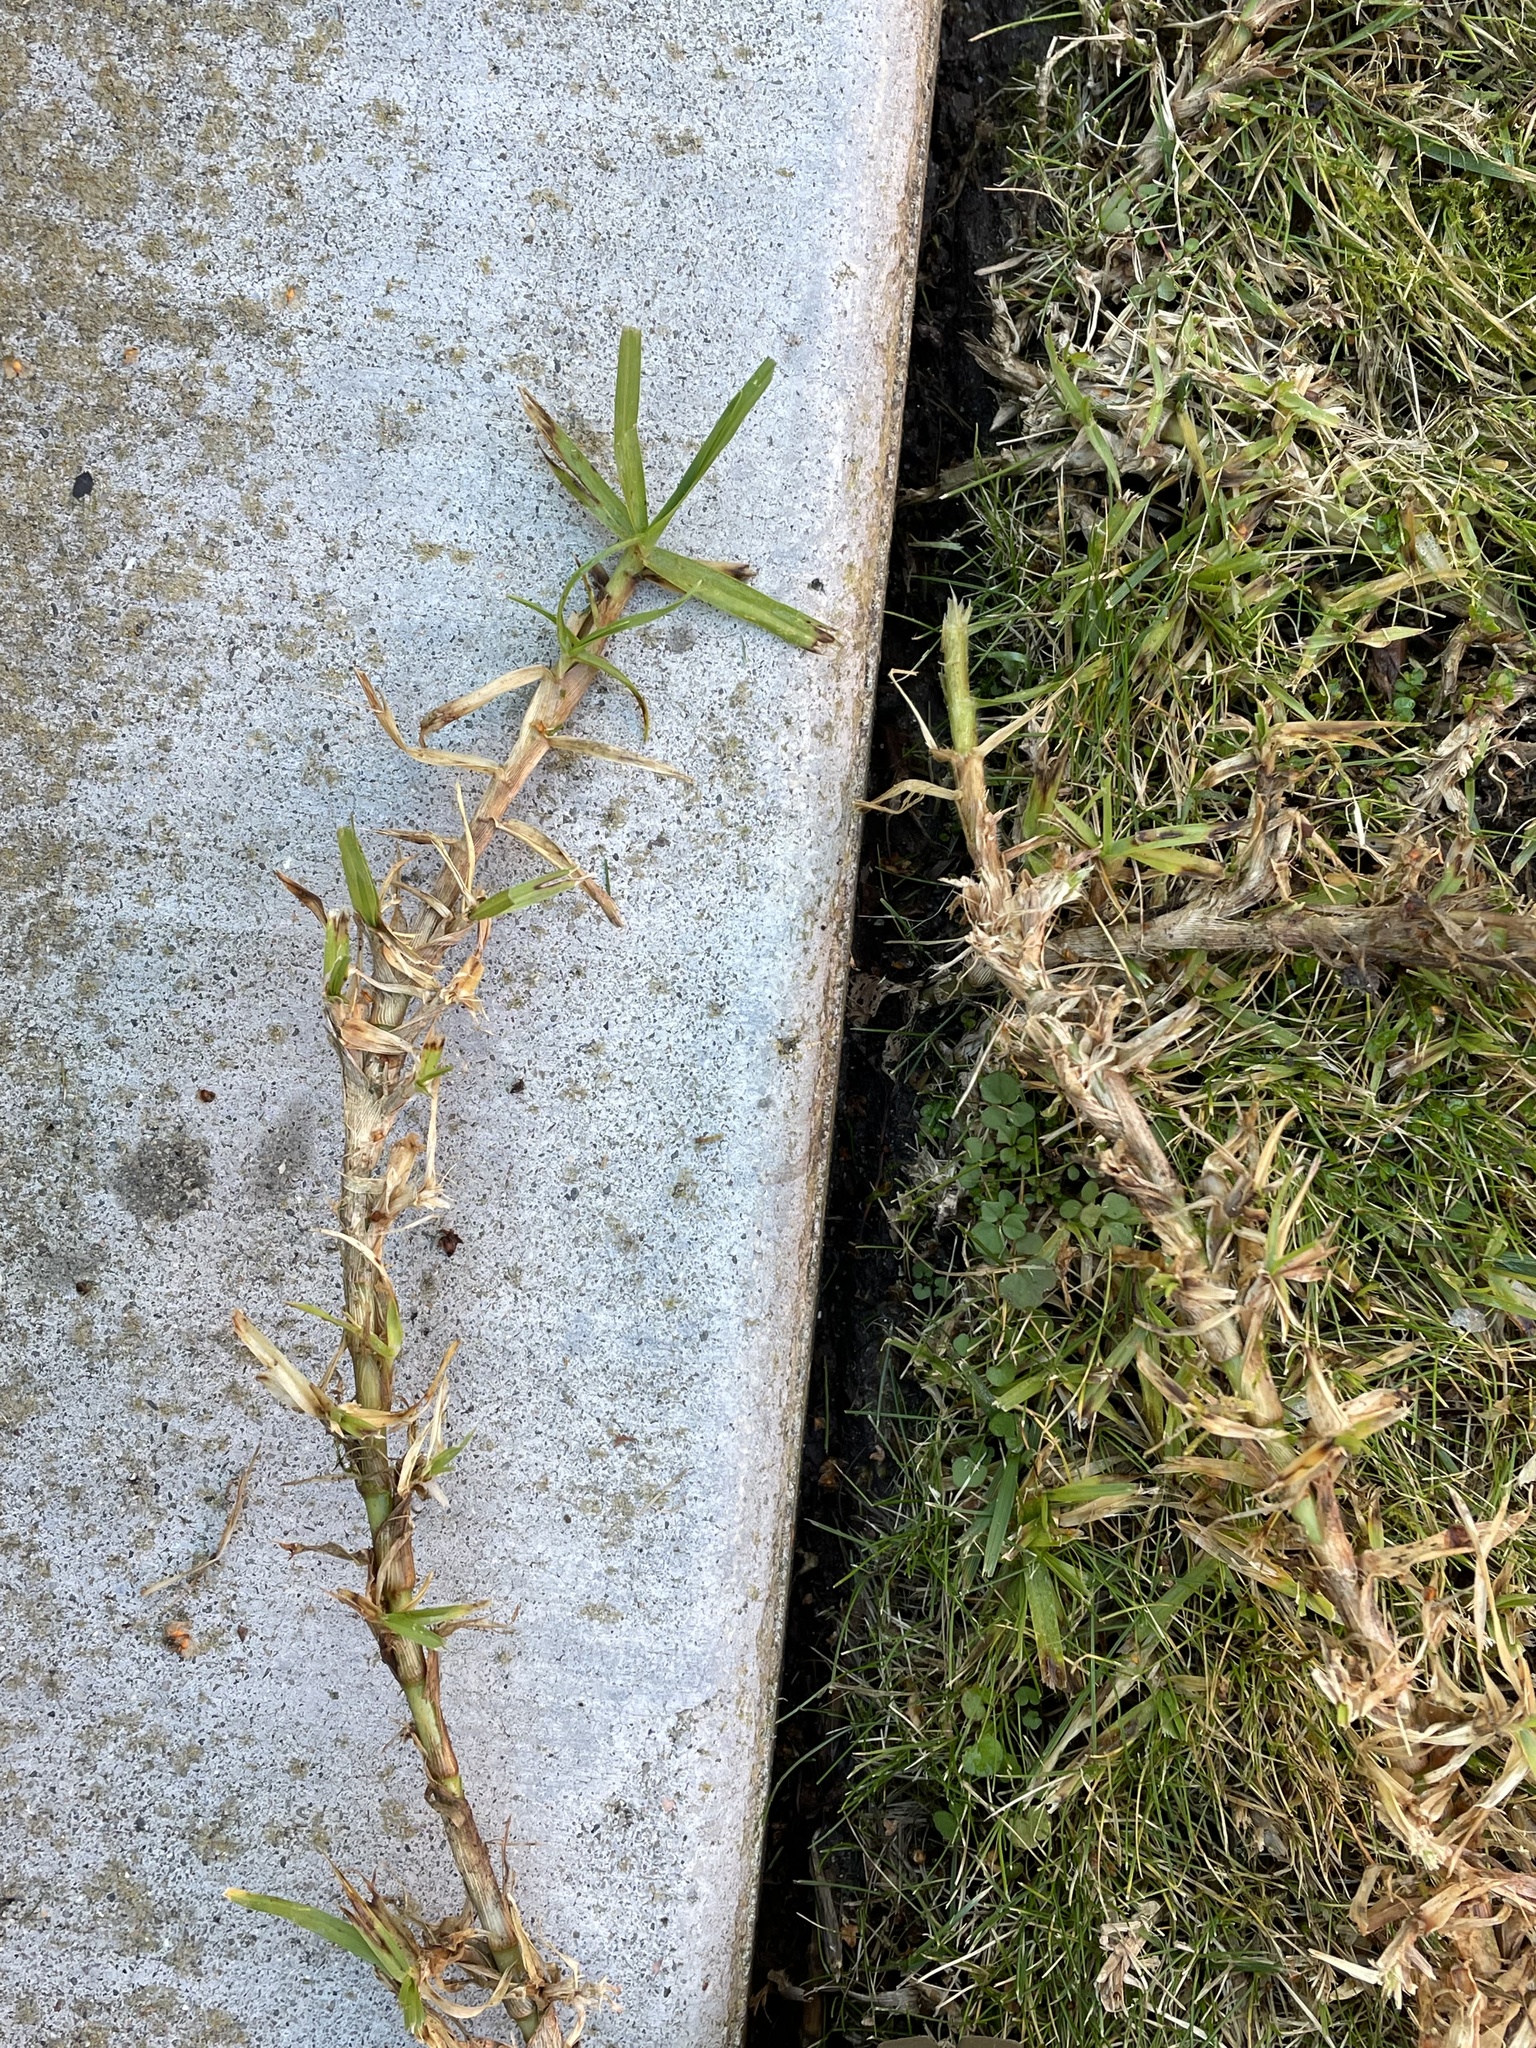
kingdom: Plantae
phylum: Tracheophyta
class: Liliopsida
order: Poales
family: Poaceae
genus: Cenchrus
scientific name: Cenchrus clandestinus
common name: Kikuyugrass
